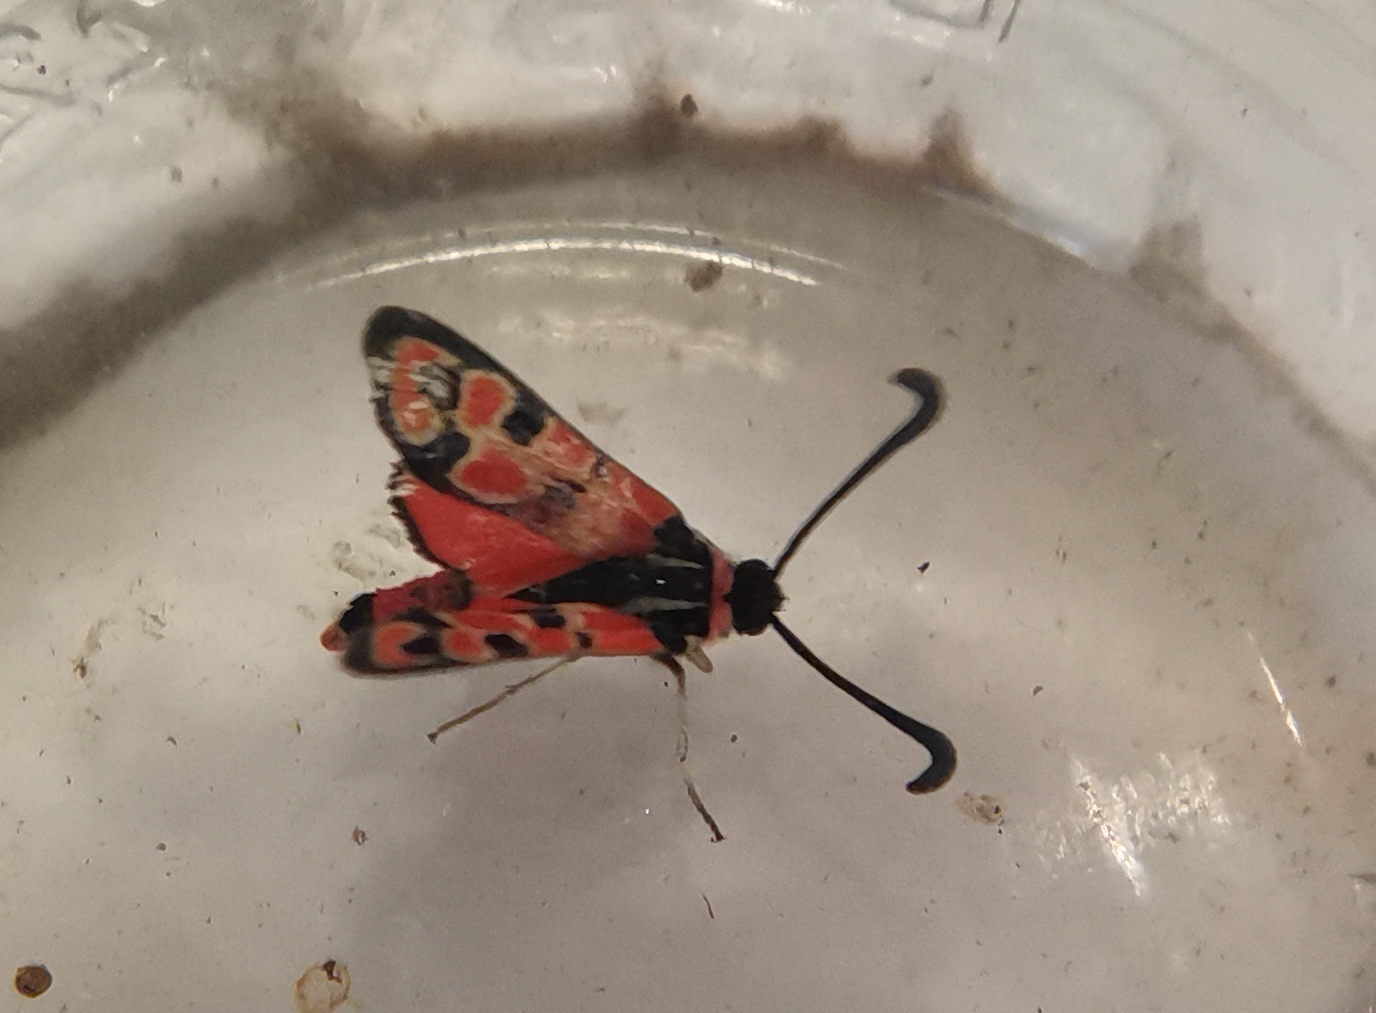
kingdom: Animalia
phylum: Arthropoda
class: Insecta
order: Lepidoptera
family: Zygaenidae
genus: Zygaena
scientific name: Zygaena fausta
